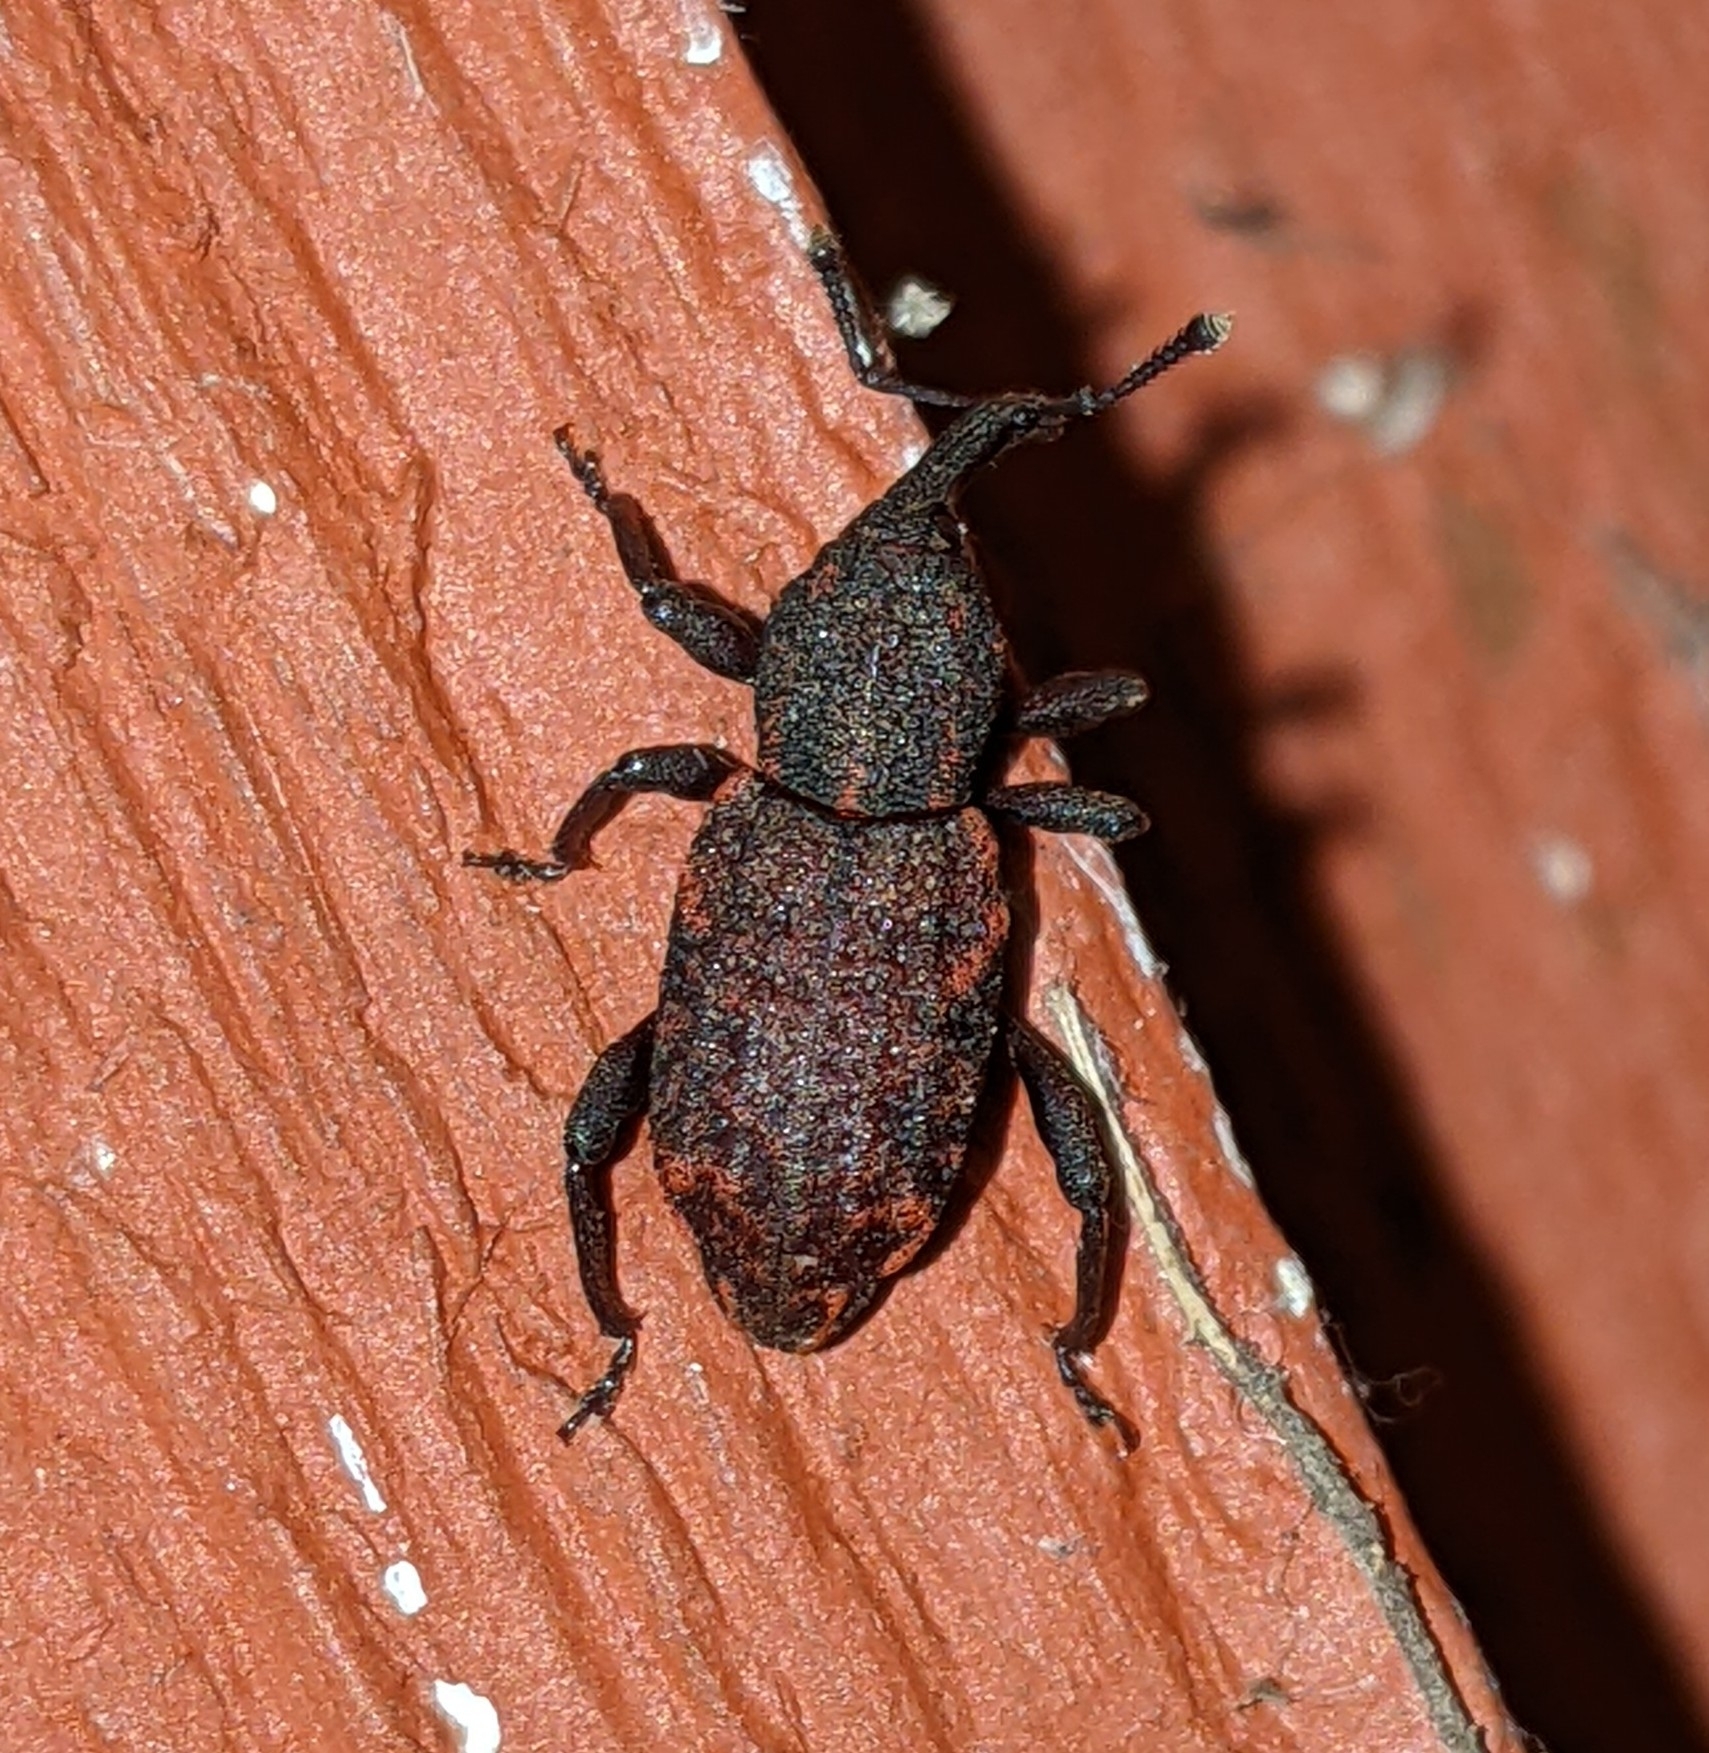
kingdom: Animalia
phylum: Arthropoda
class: Insecta
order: Coleoptera
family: Curculionidae
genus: Steremnius
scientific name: Steremnius carinatus
